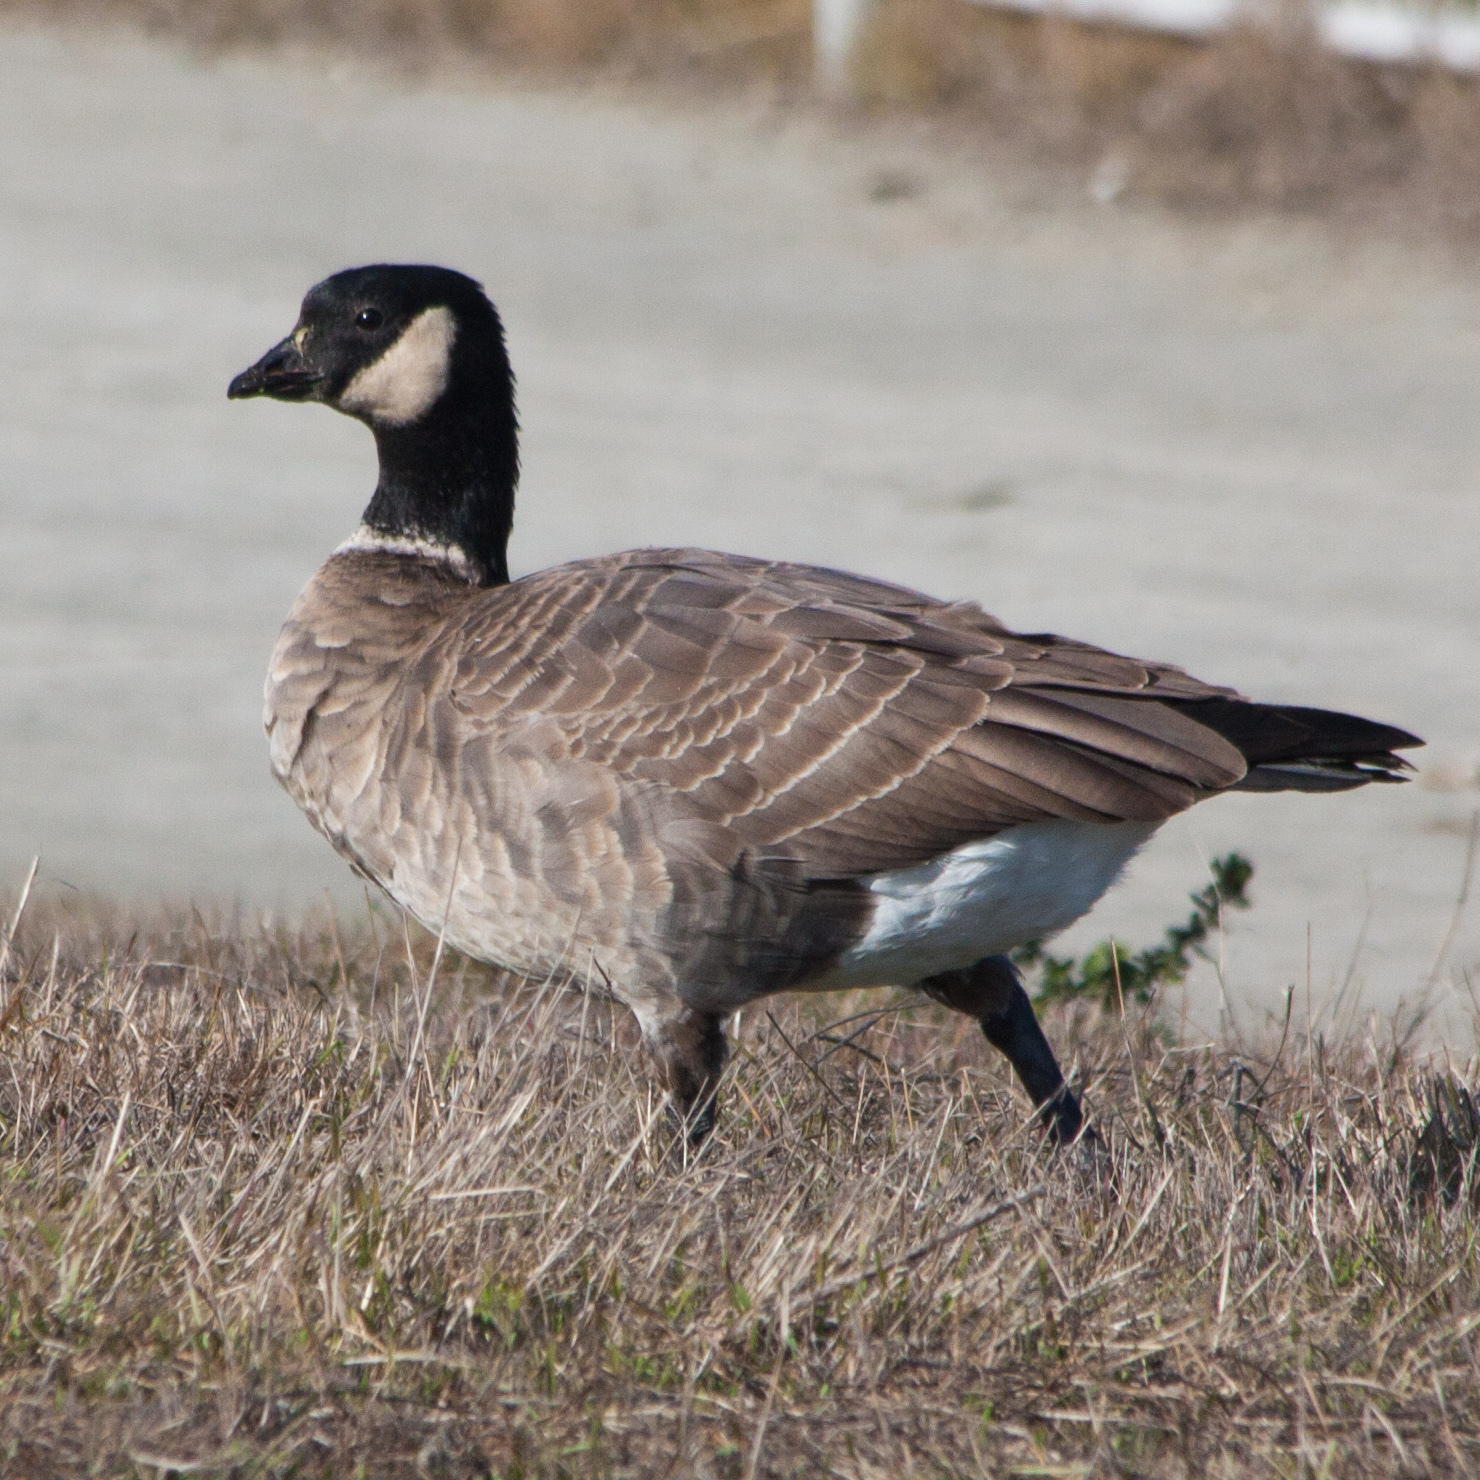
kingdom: Animalia
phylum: Chordata
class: Aves
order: Anseriformes
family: Anatidae
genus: Branta
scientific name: Branta hutchinsii
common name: Cackling goose
